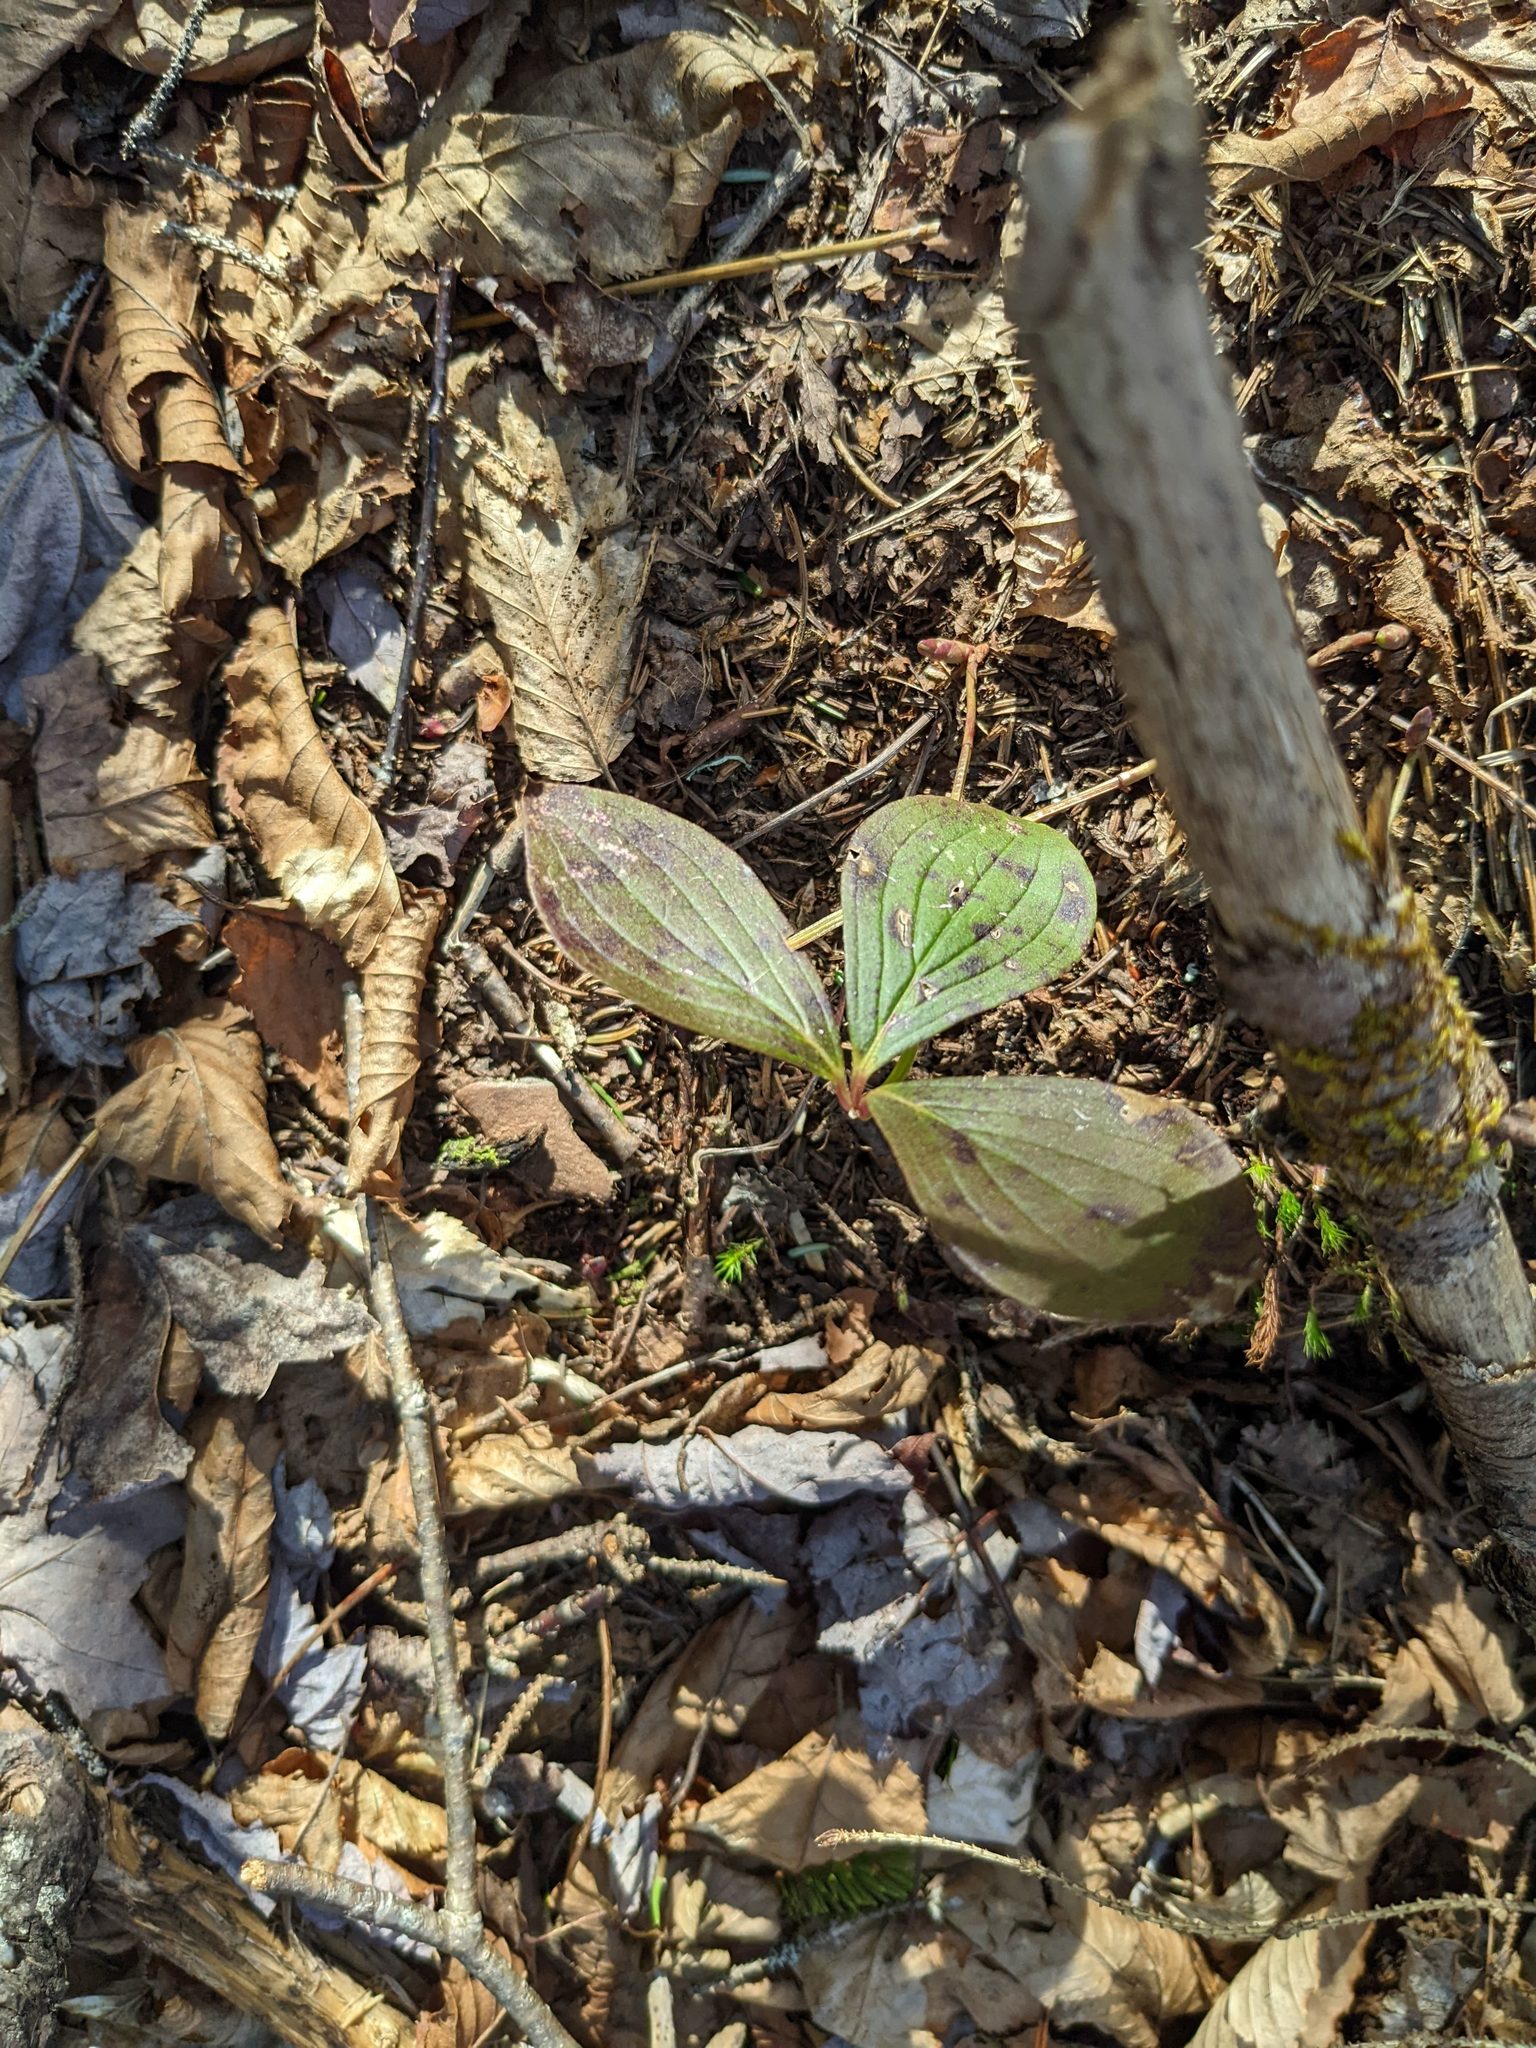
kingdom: Plantae
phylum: Tracheophyta
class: Magnoliopsida
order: Cornales
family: Cornaceae
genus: Cornus
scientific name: Cornus canadensis
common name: Creeping dogwood
